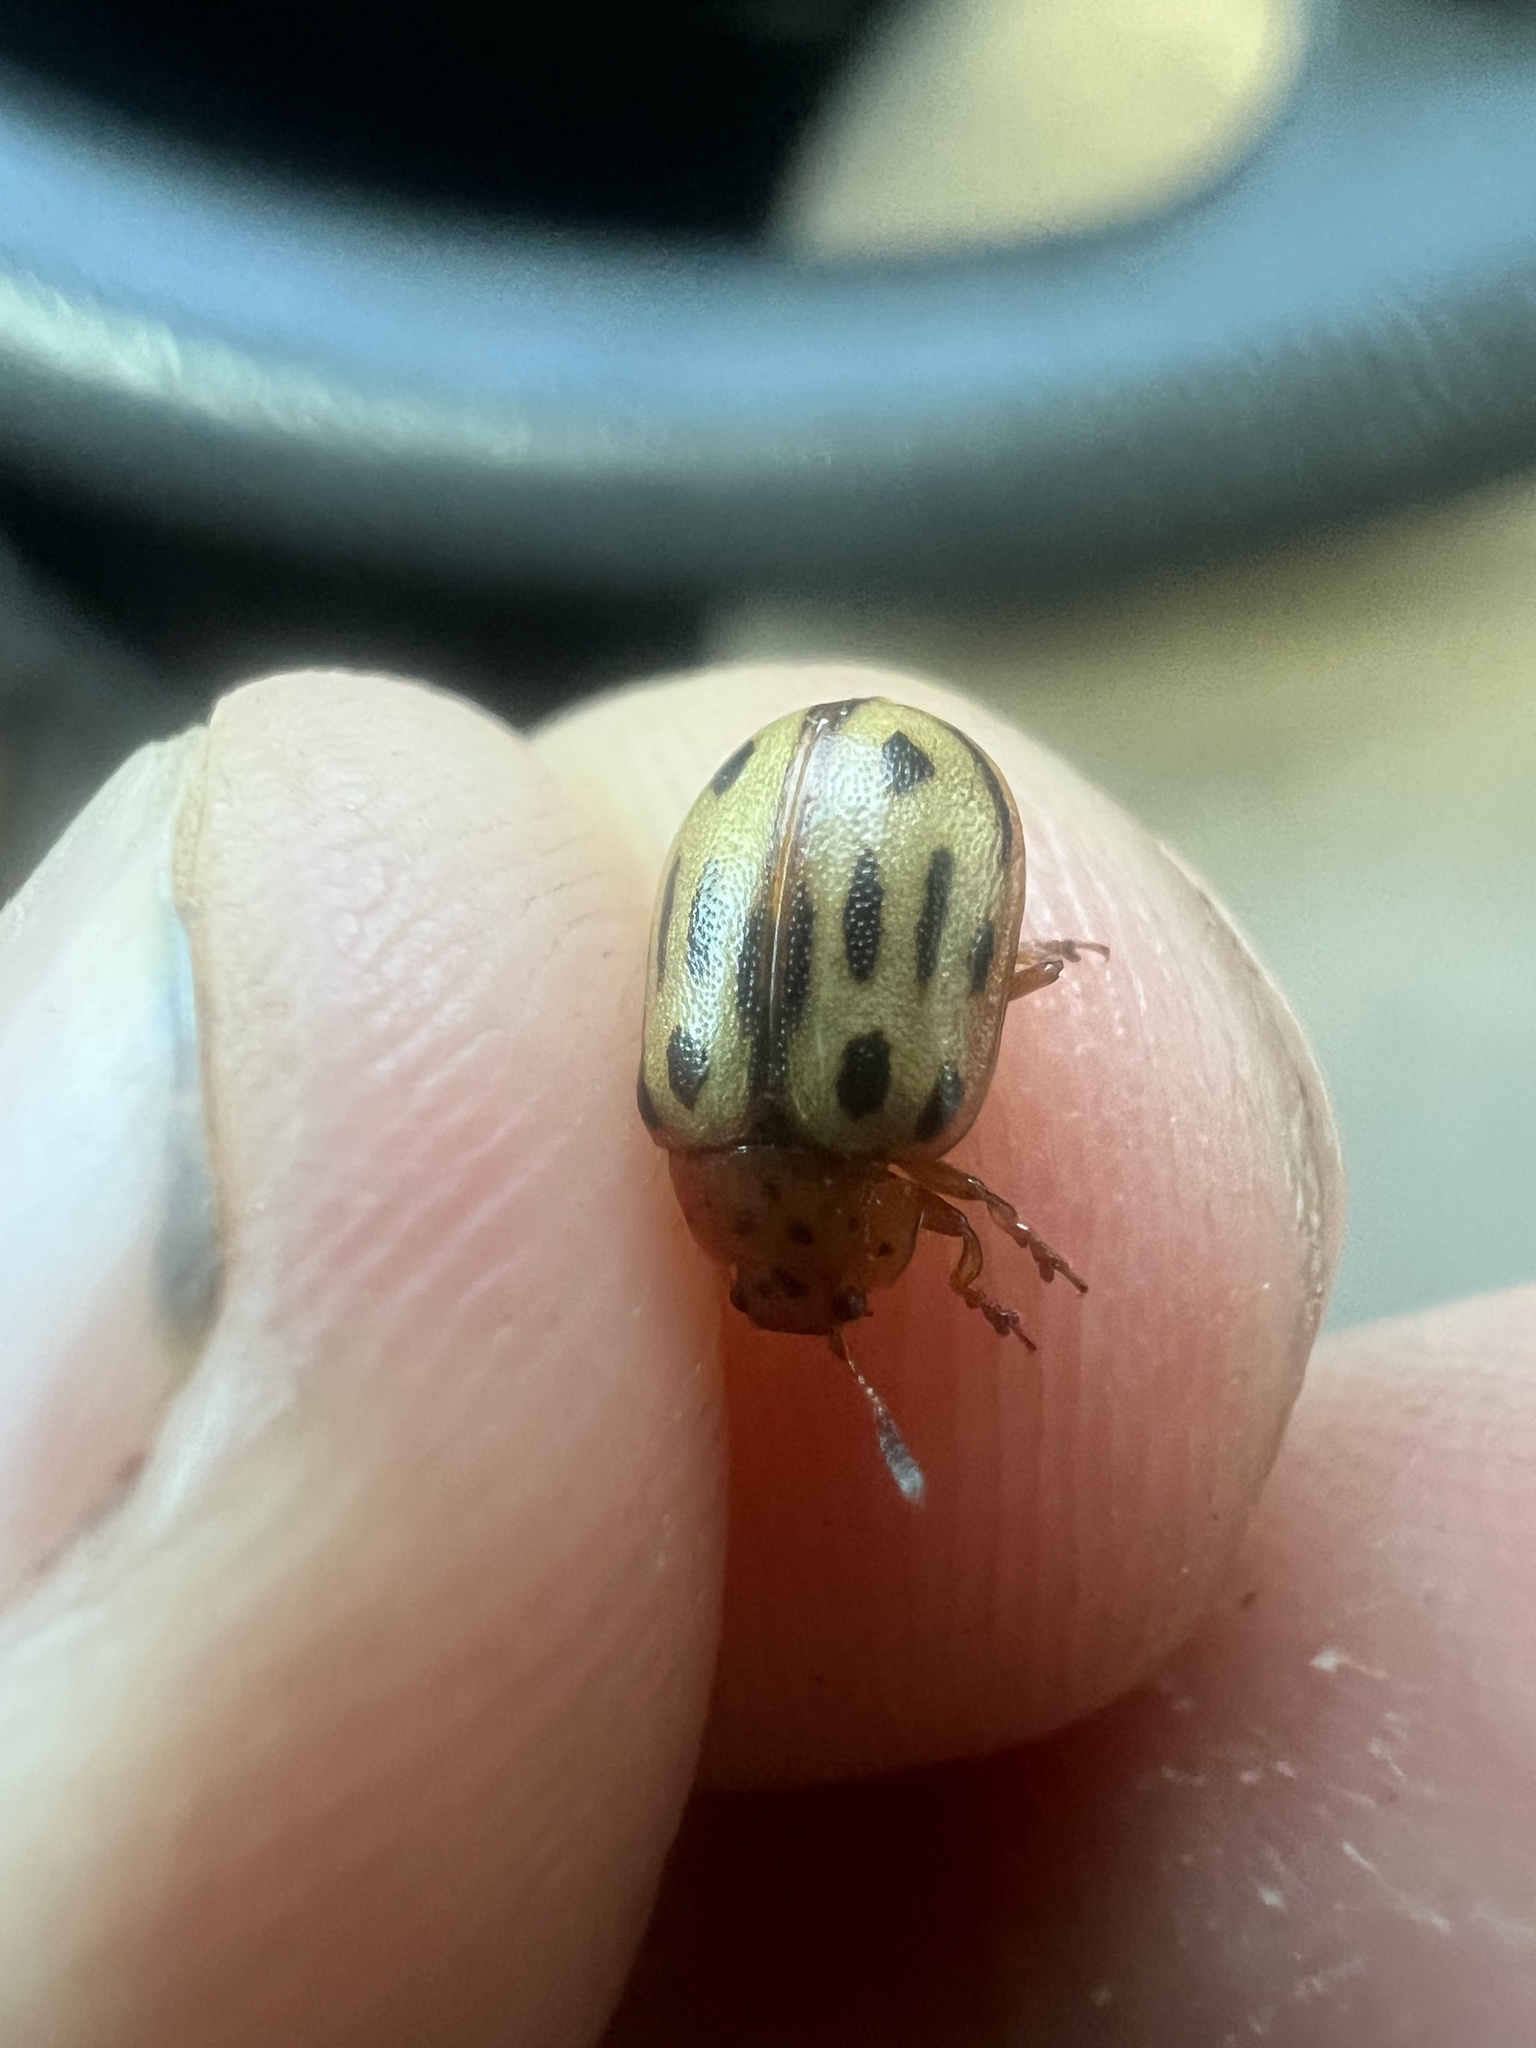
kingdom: Animalia
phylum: Arthropoda
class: Insecta
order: Coleoptera
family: Chrysomelidae
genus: Chrysomela
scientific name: Chrysomela lineatopunctata
